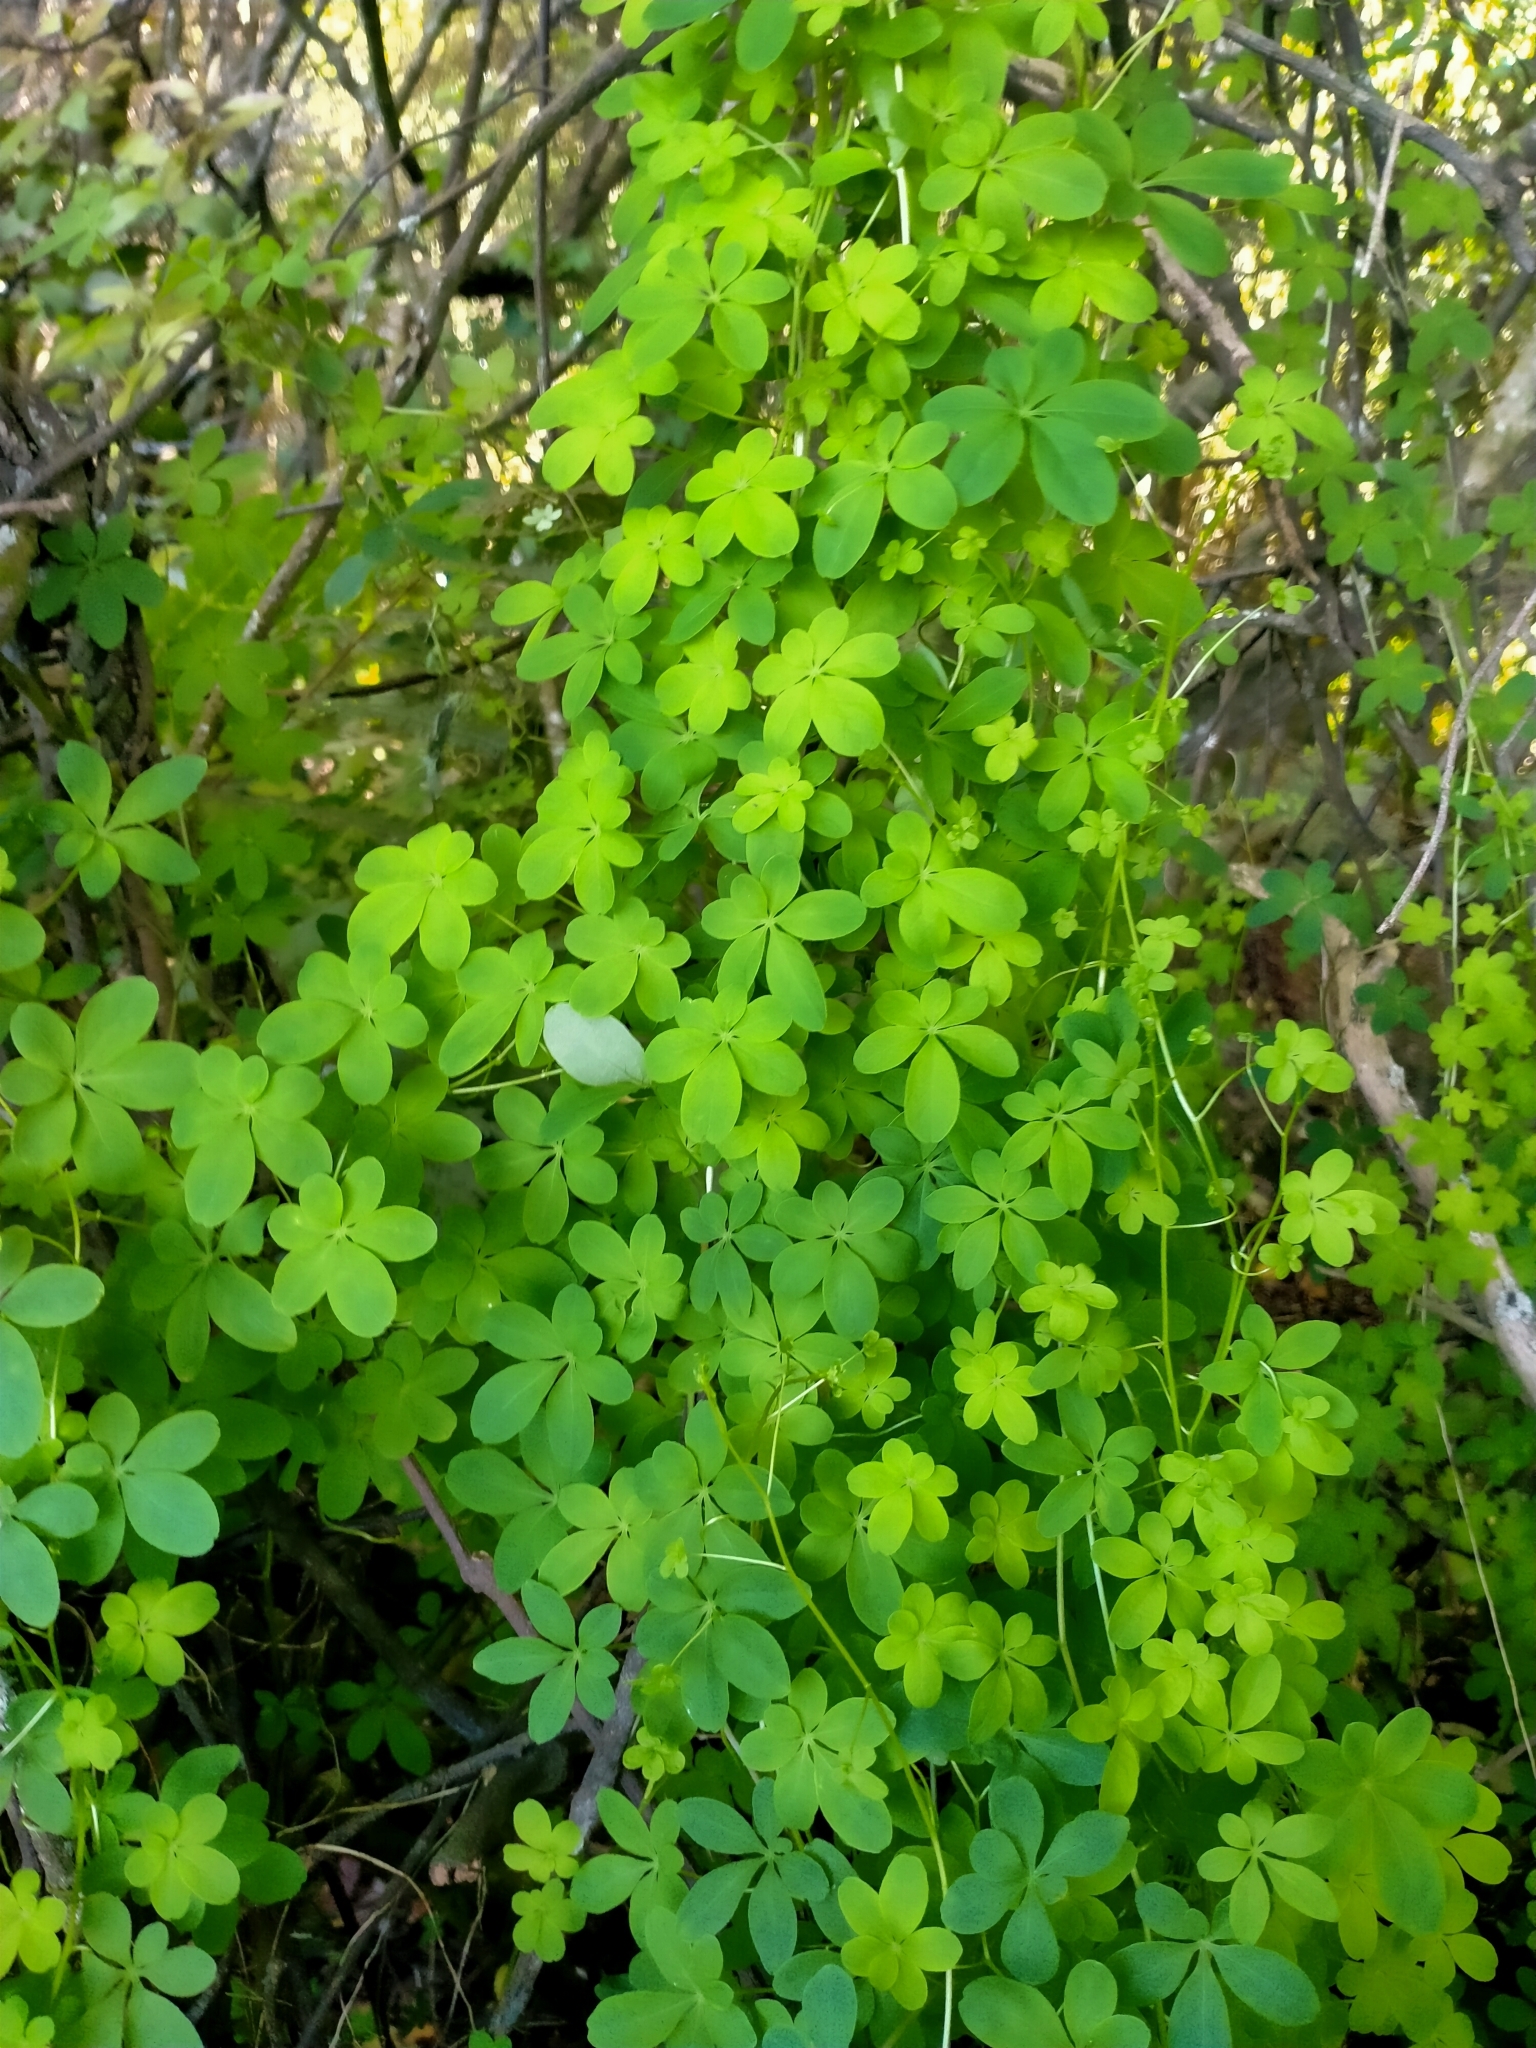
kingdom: Plantae
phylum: Tracheophyta
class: Magnoliopsida
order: Brassicales
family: Tropaeolaceae
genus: Tropaeolum
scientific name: Tropaeolum speciosum
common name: Flame nasturtium
